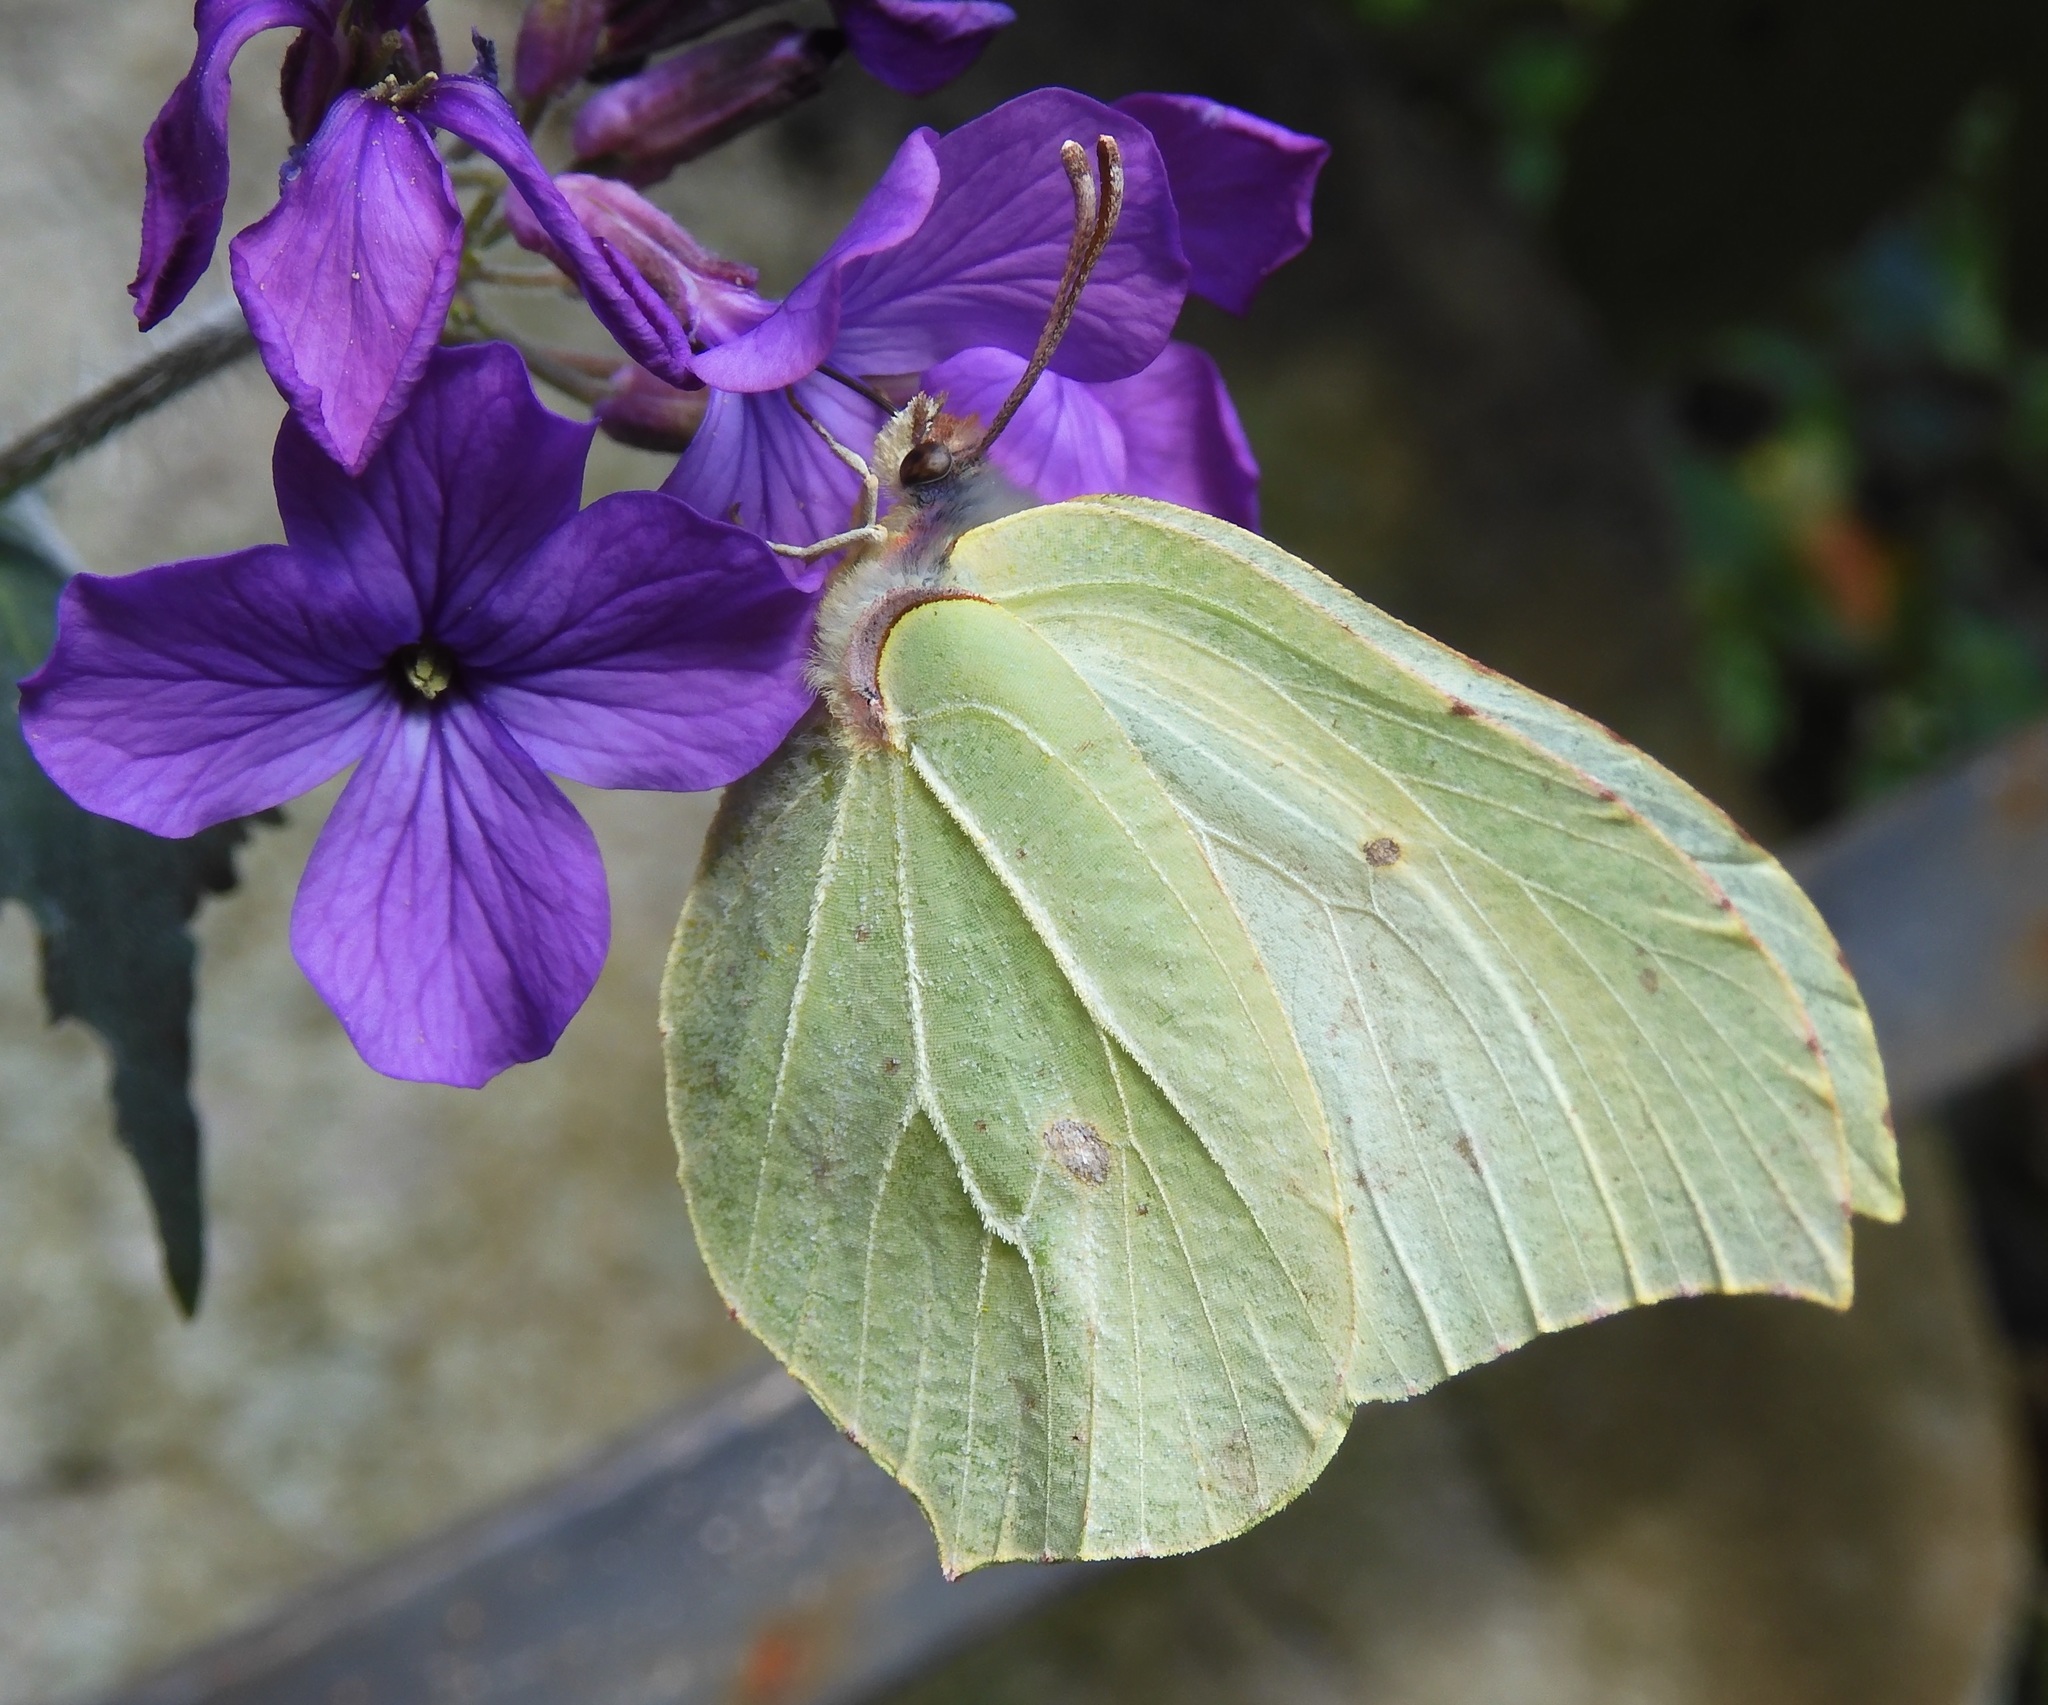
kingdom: Animalia
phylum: Arthropoda
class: Insecta
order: Lepidoptera
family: Pieridae
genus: Gonepteryx
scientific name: Gonepteryx rhamni
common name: Brimstone
